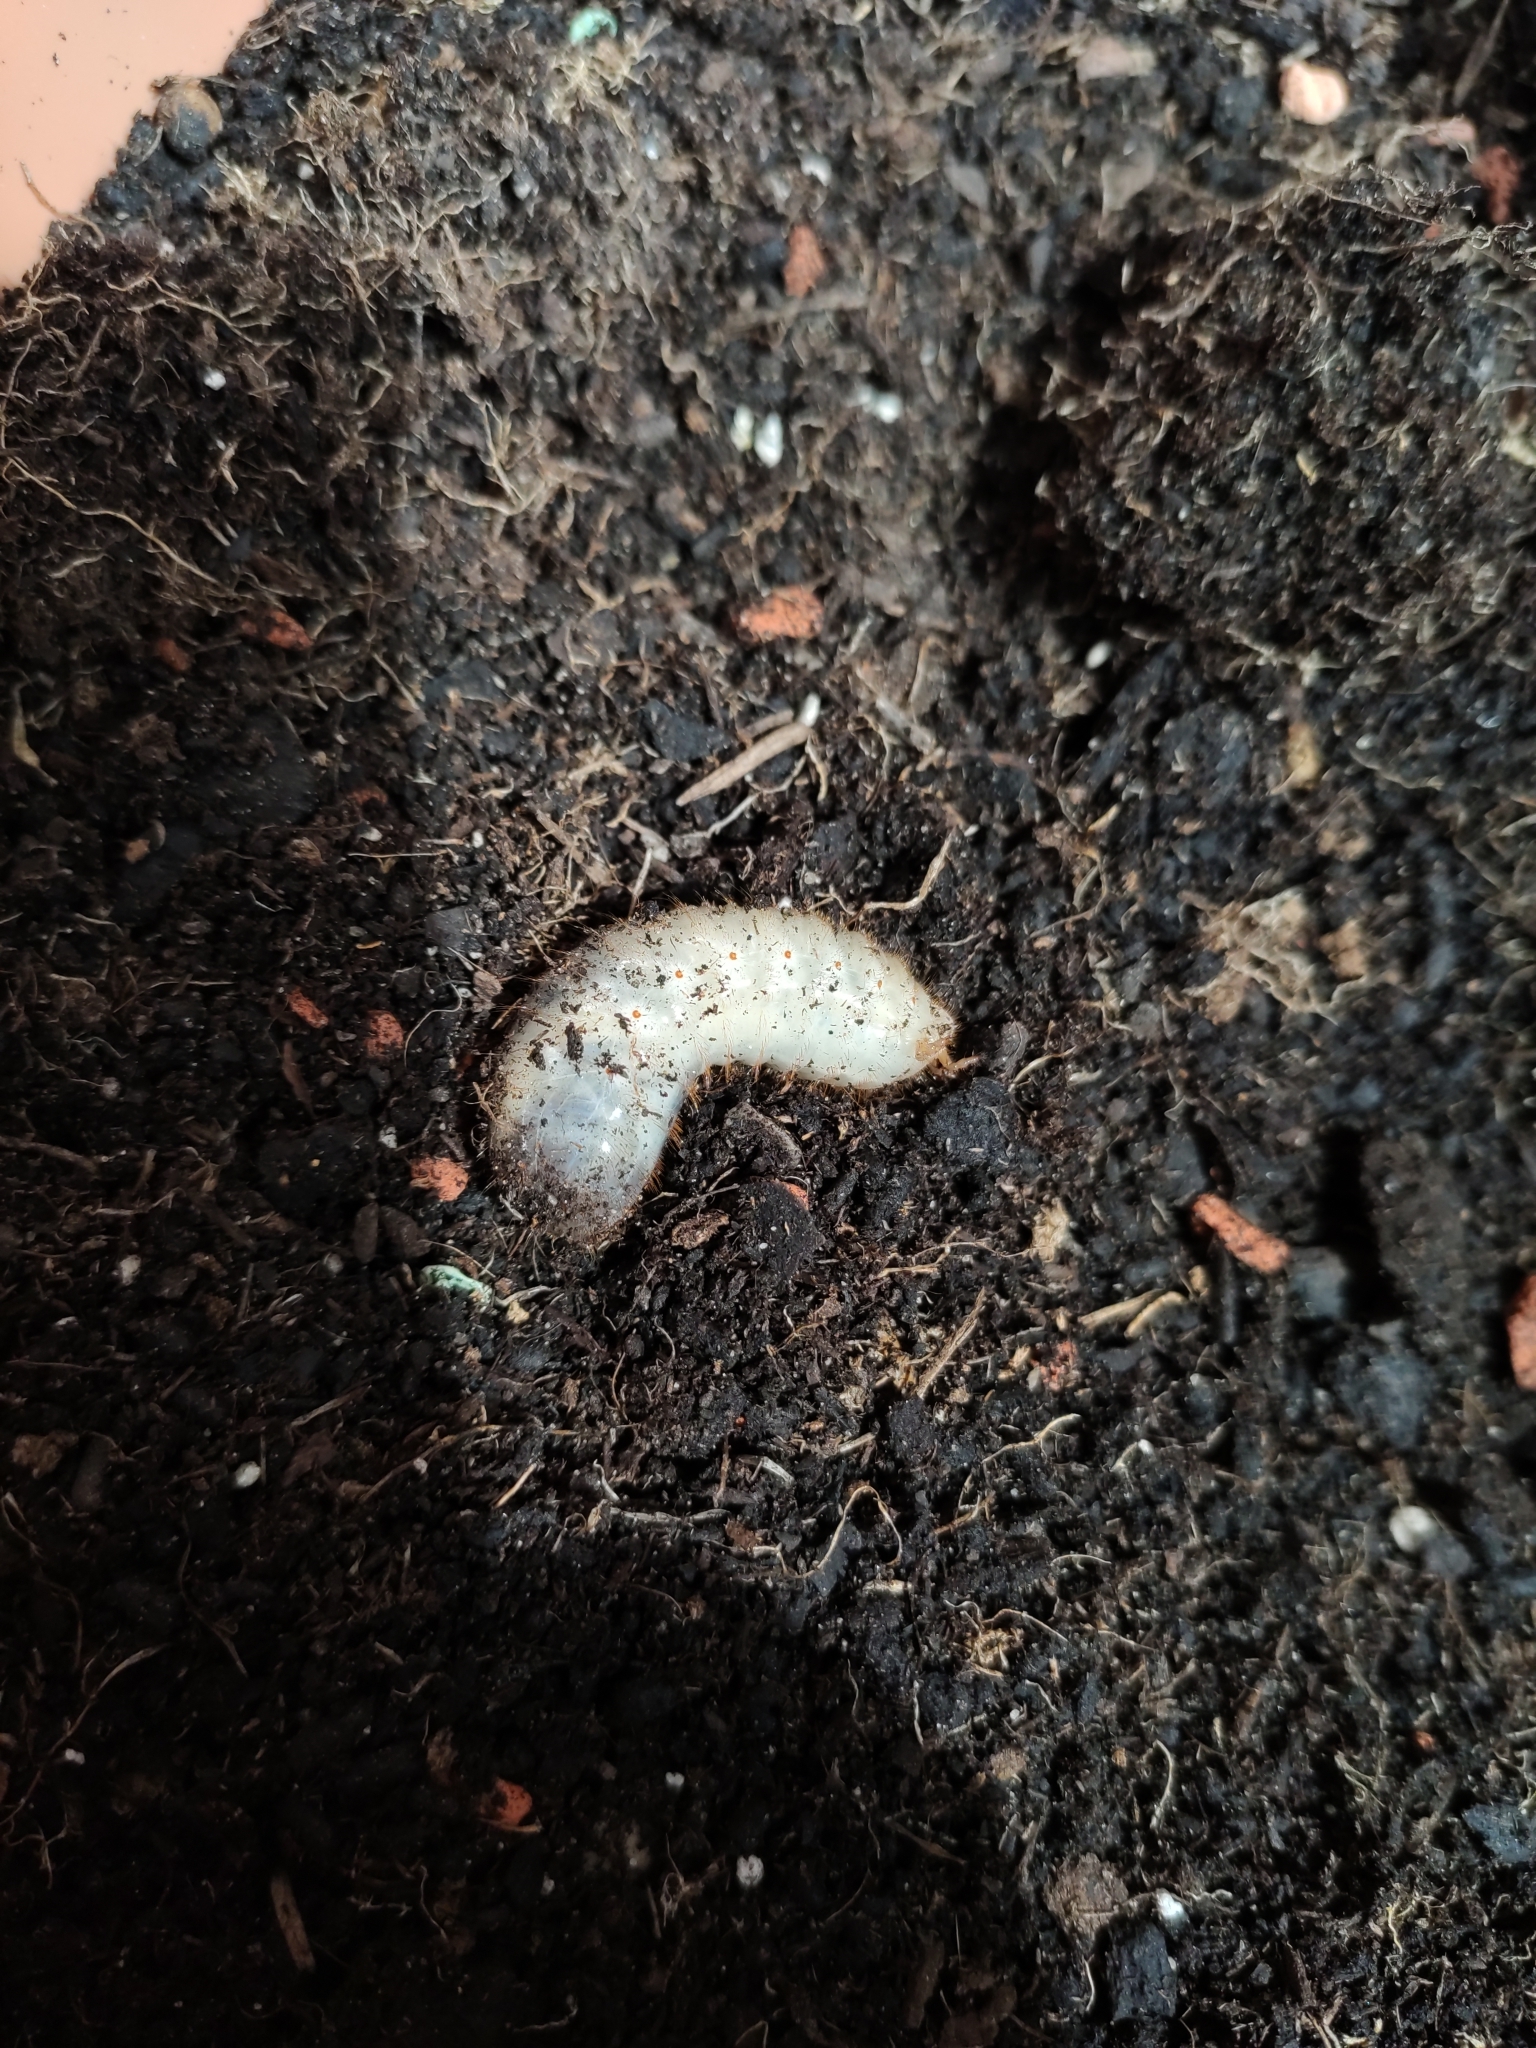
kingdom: Animalia
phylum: Arthropoda
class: Insecta
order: Coleoptera
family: Scarabaeidae
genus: Cetonia
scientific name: Cetonia aurata
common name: Rose chafer
